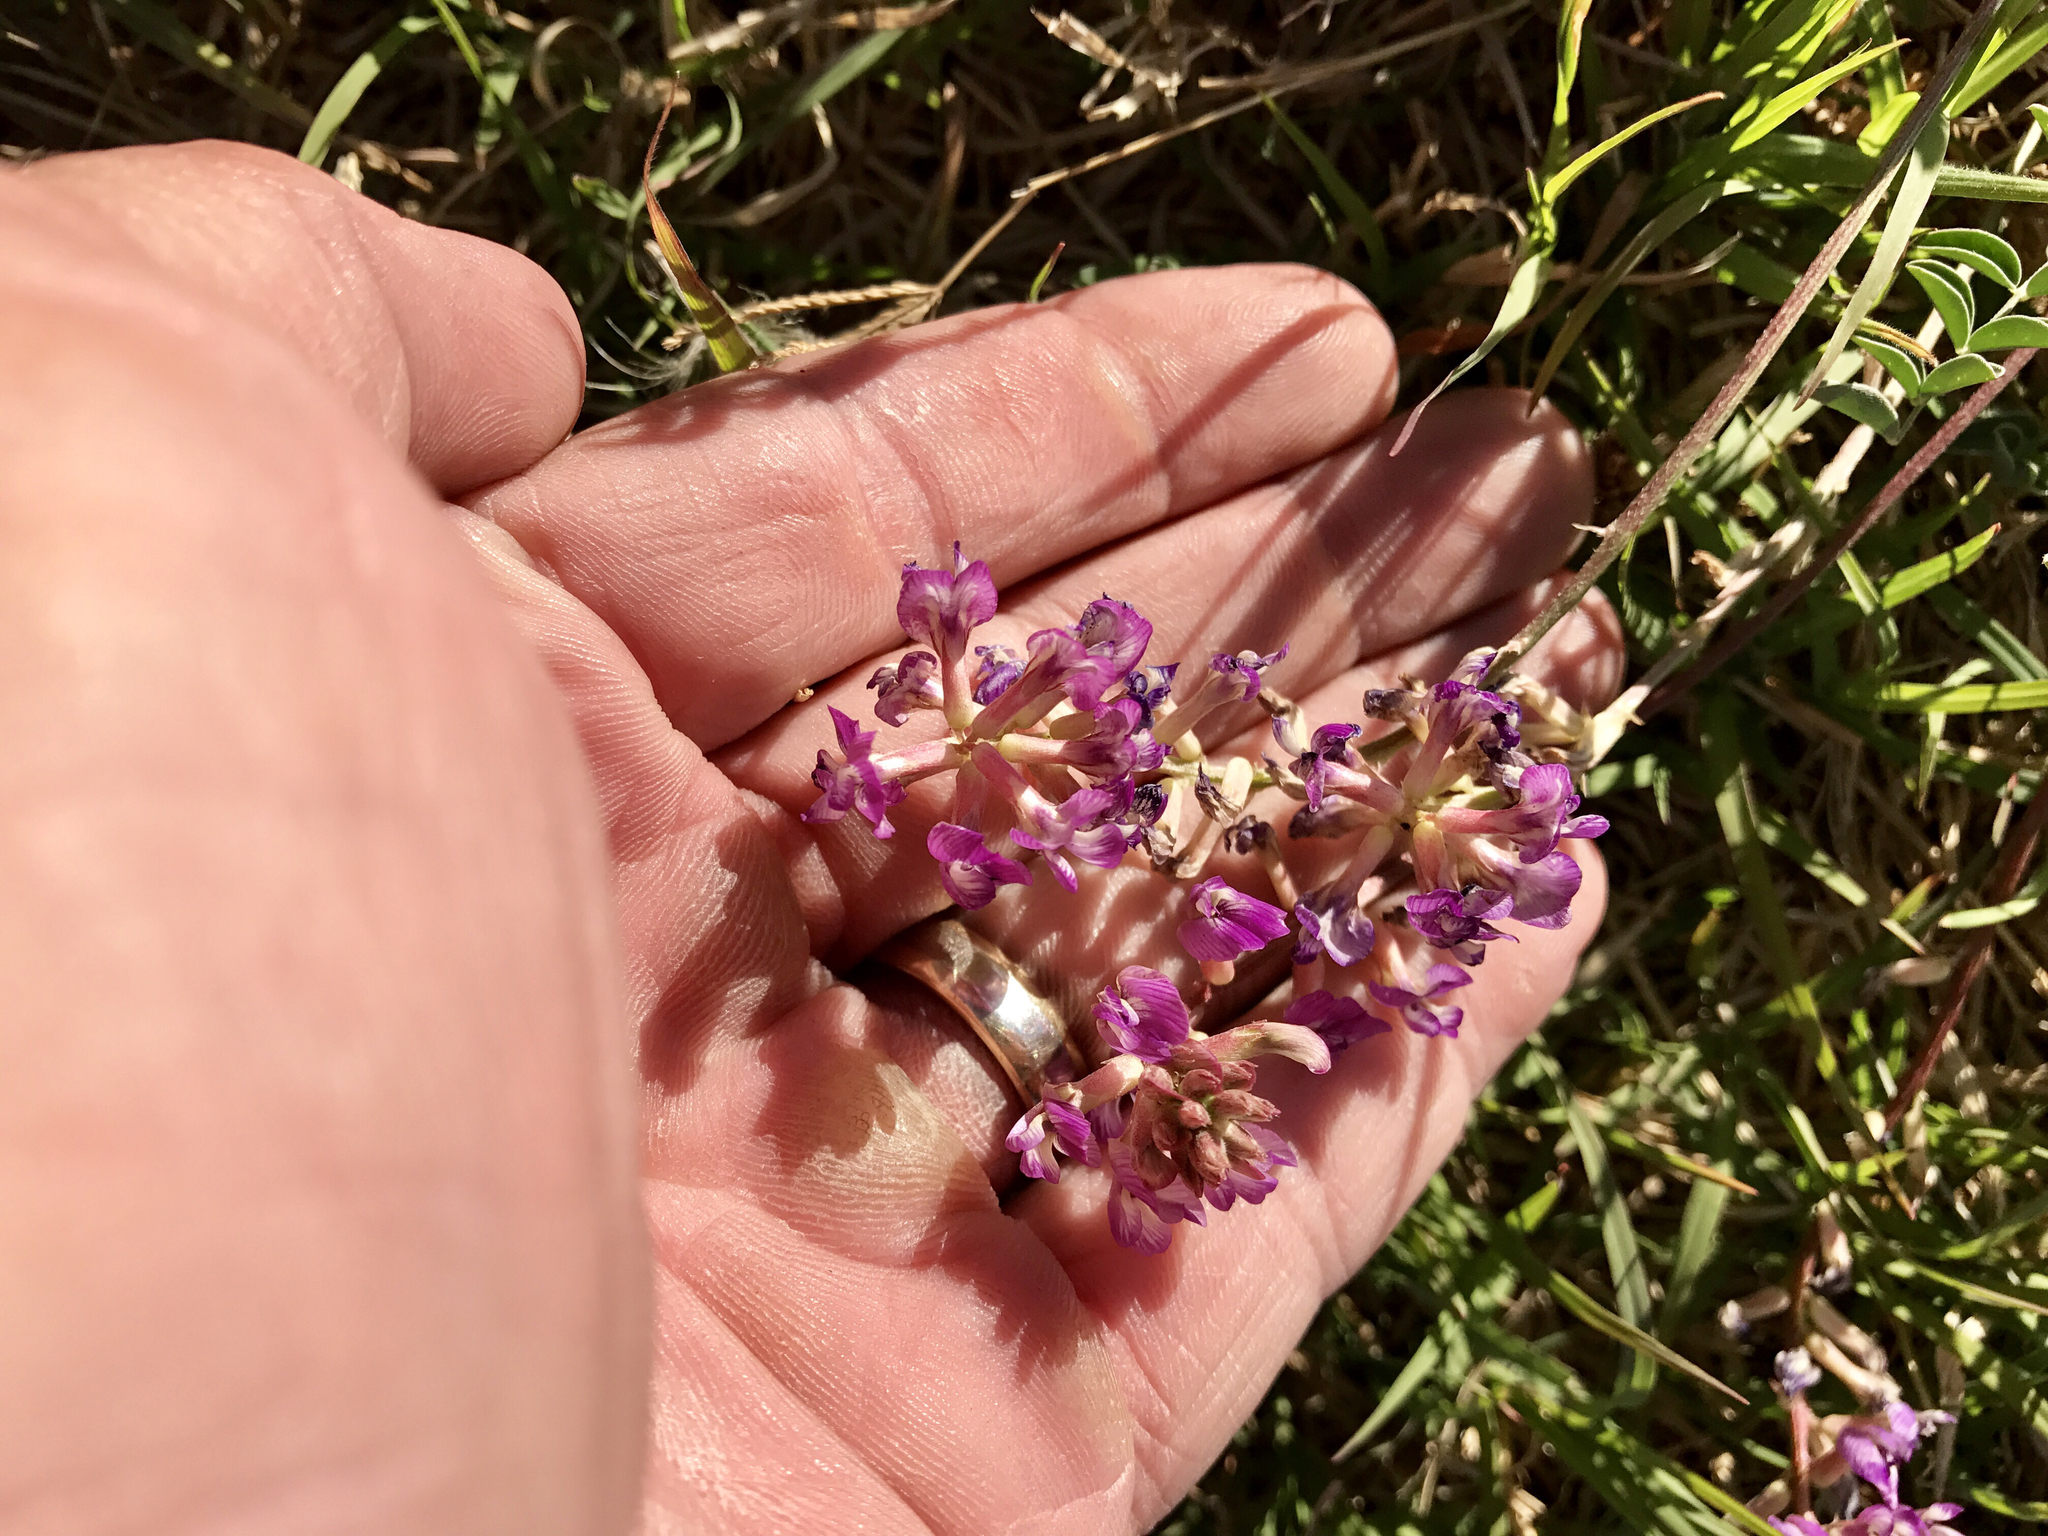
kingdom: Plantae
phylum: Tracheophyta
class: Magnoliopsida
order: Fabales
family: Fabaceae
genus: Astragalus
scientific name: Astragalus arizonicus
